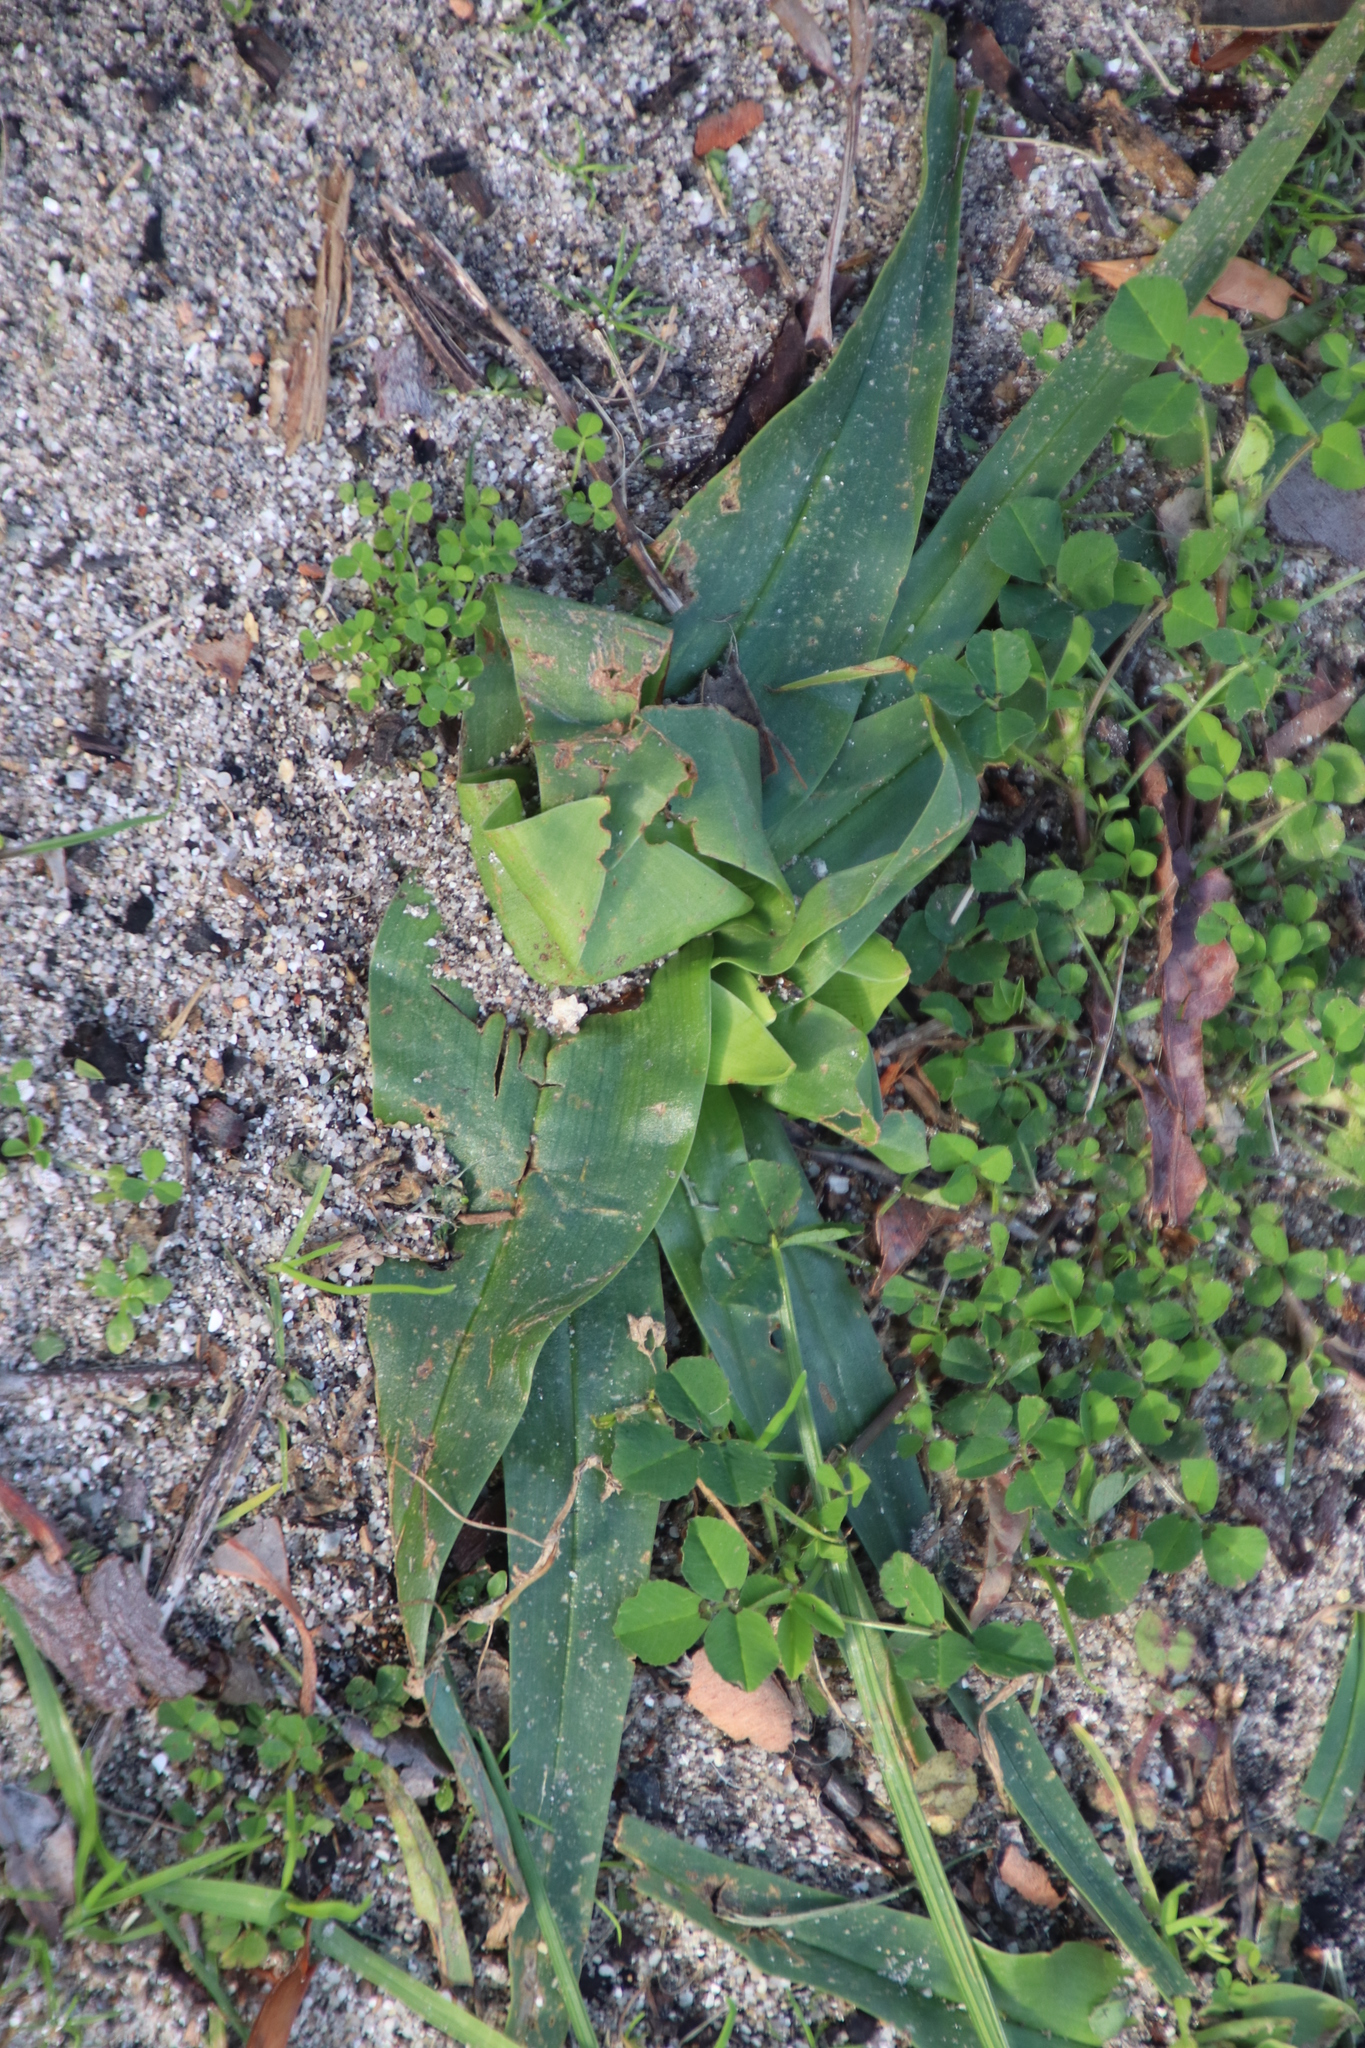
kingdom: Plantae
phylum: Tracheophyta
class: Liliopsida
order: Liliales
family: Colchicaceae
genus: Colchicum
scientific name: Colchicum eucomoides
